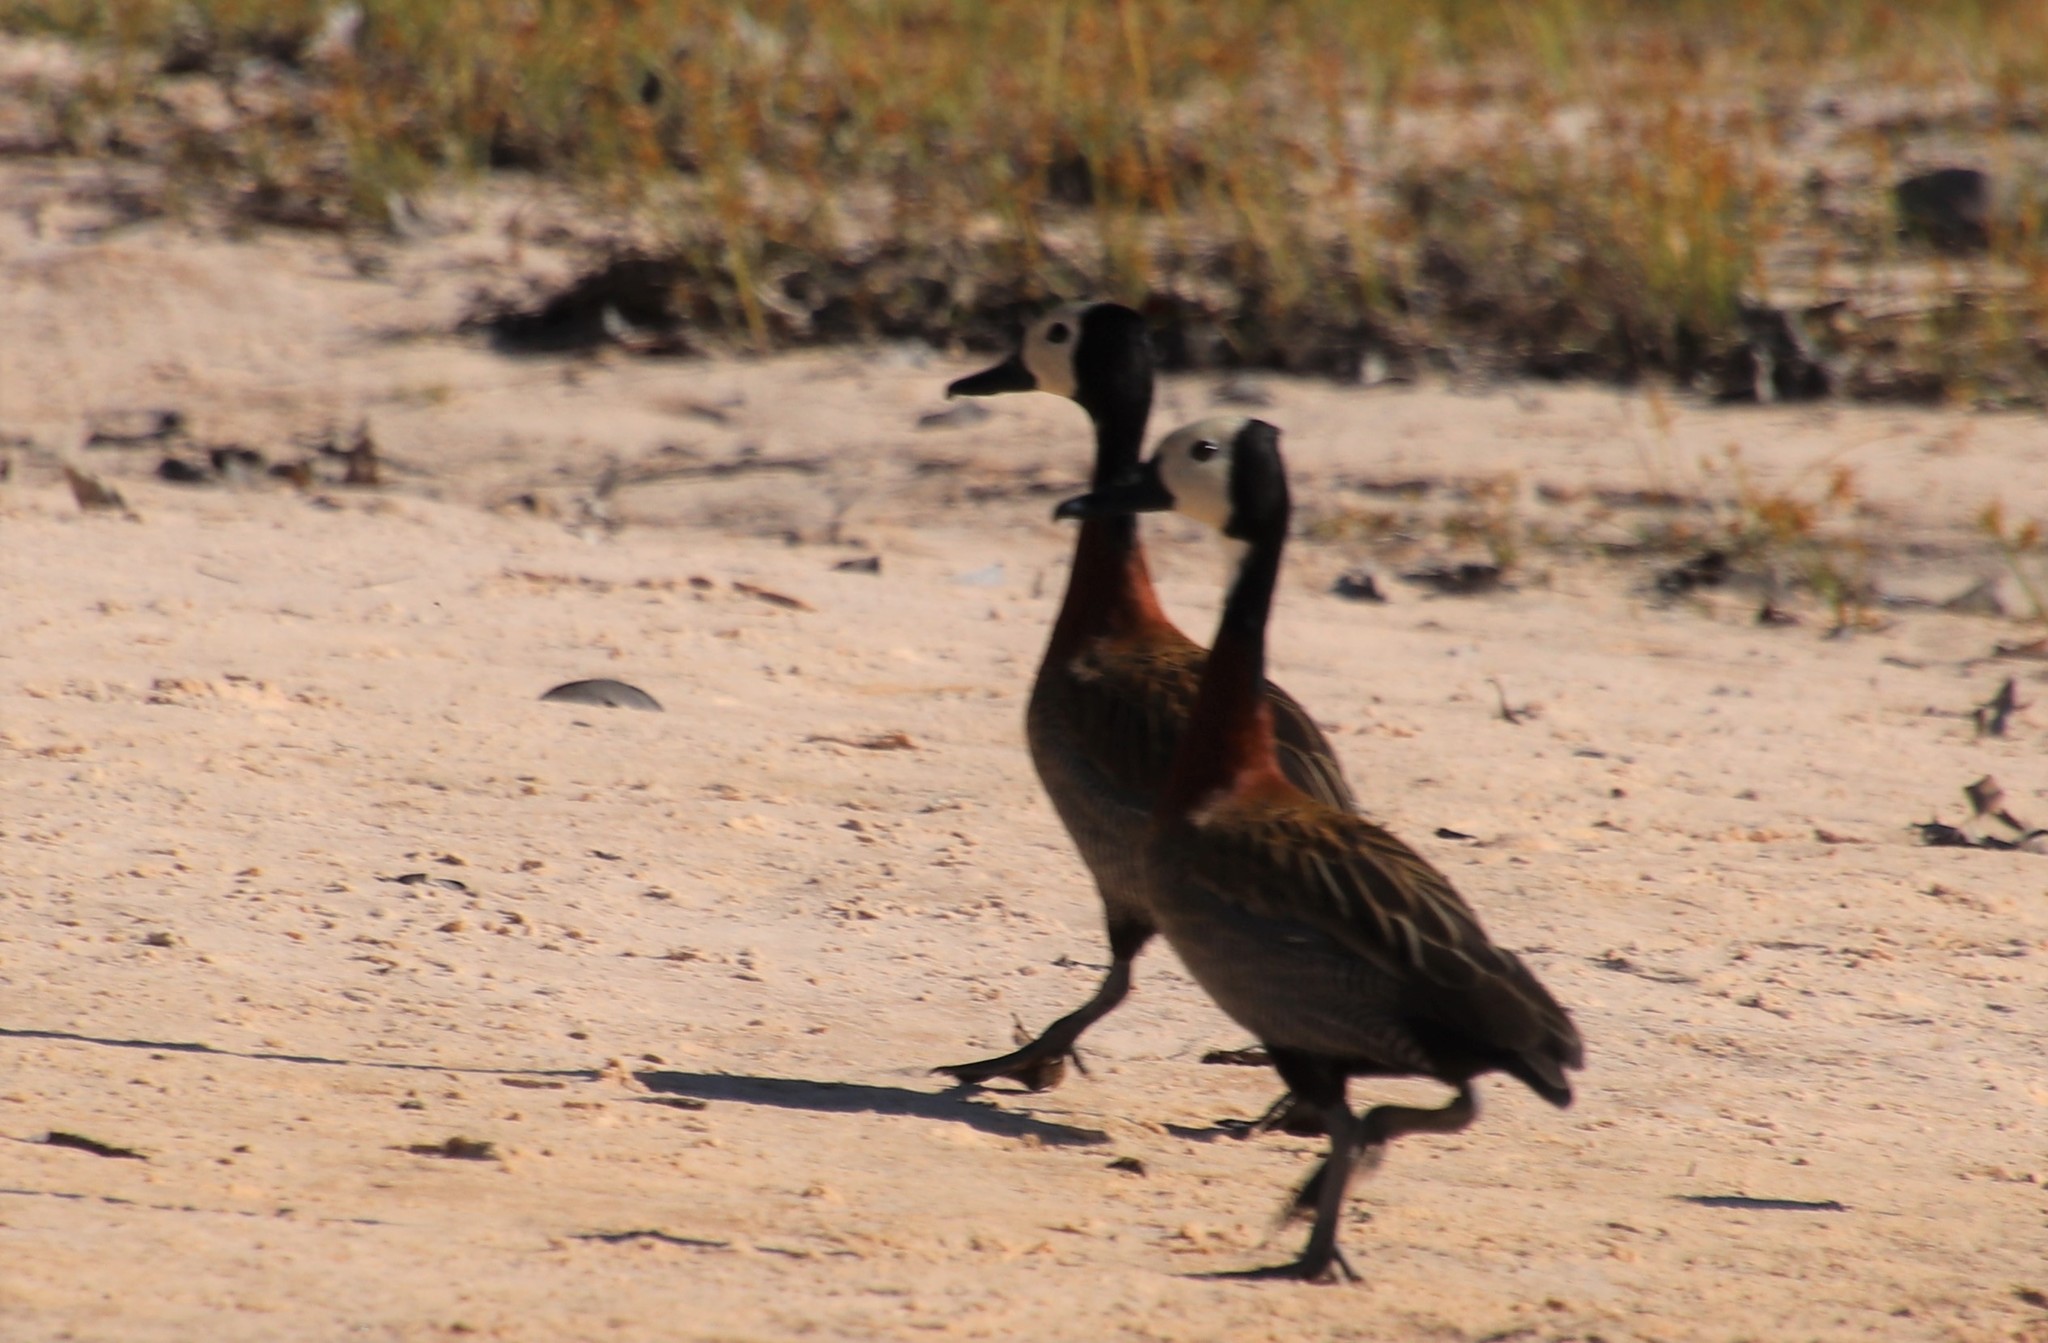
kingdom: Animalia
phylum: Chordata
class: Aves
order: Anseriformes
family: Anatidae
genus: Dendrocygna
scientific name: Dendrocygna viduata
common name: White-faced whistling duck
